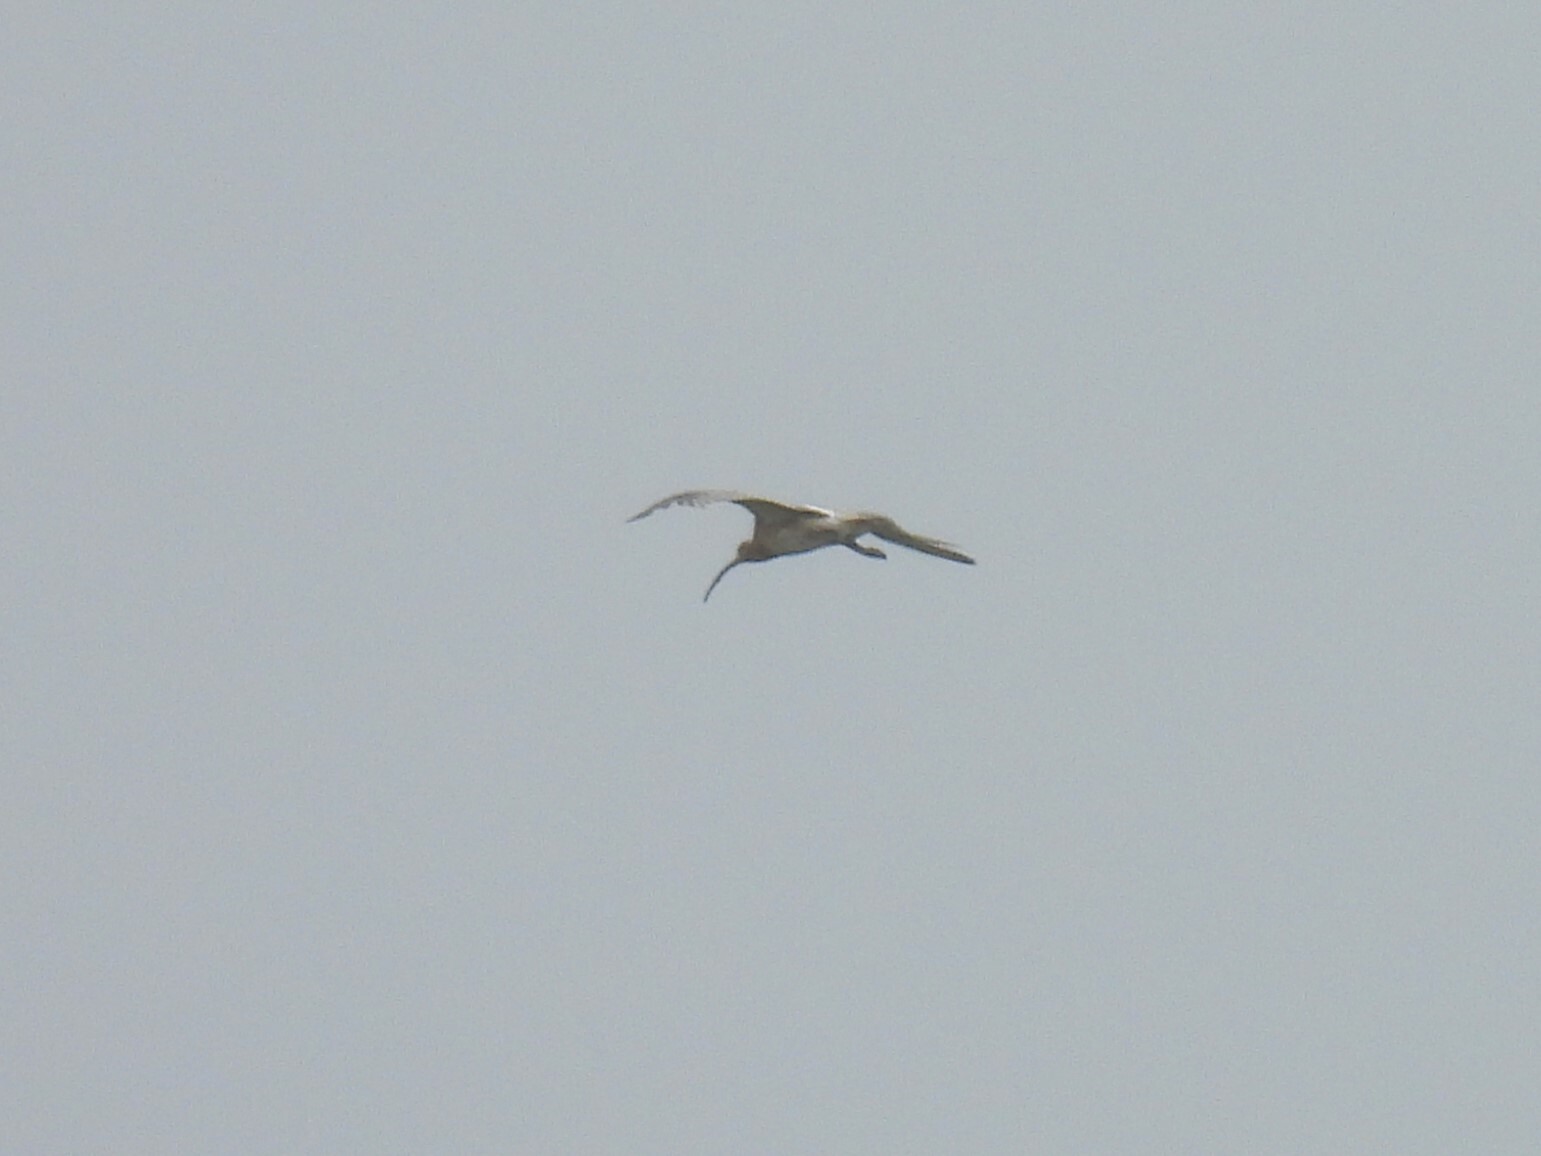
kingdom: Animalia
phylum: Chordata
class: Aves
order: Charadriiformes
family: Scolopacidae
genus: Numenius
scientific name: Numenius arquata
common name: Eurasian curlew
